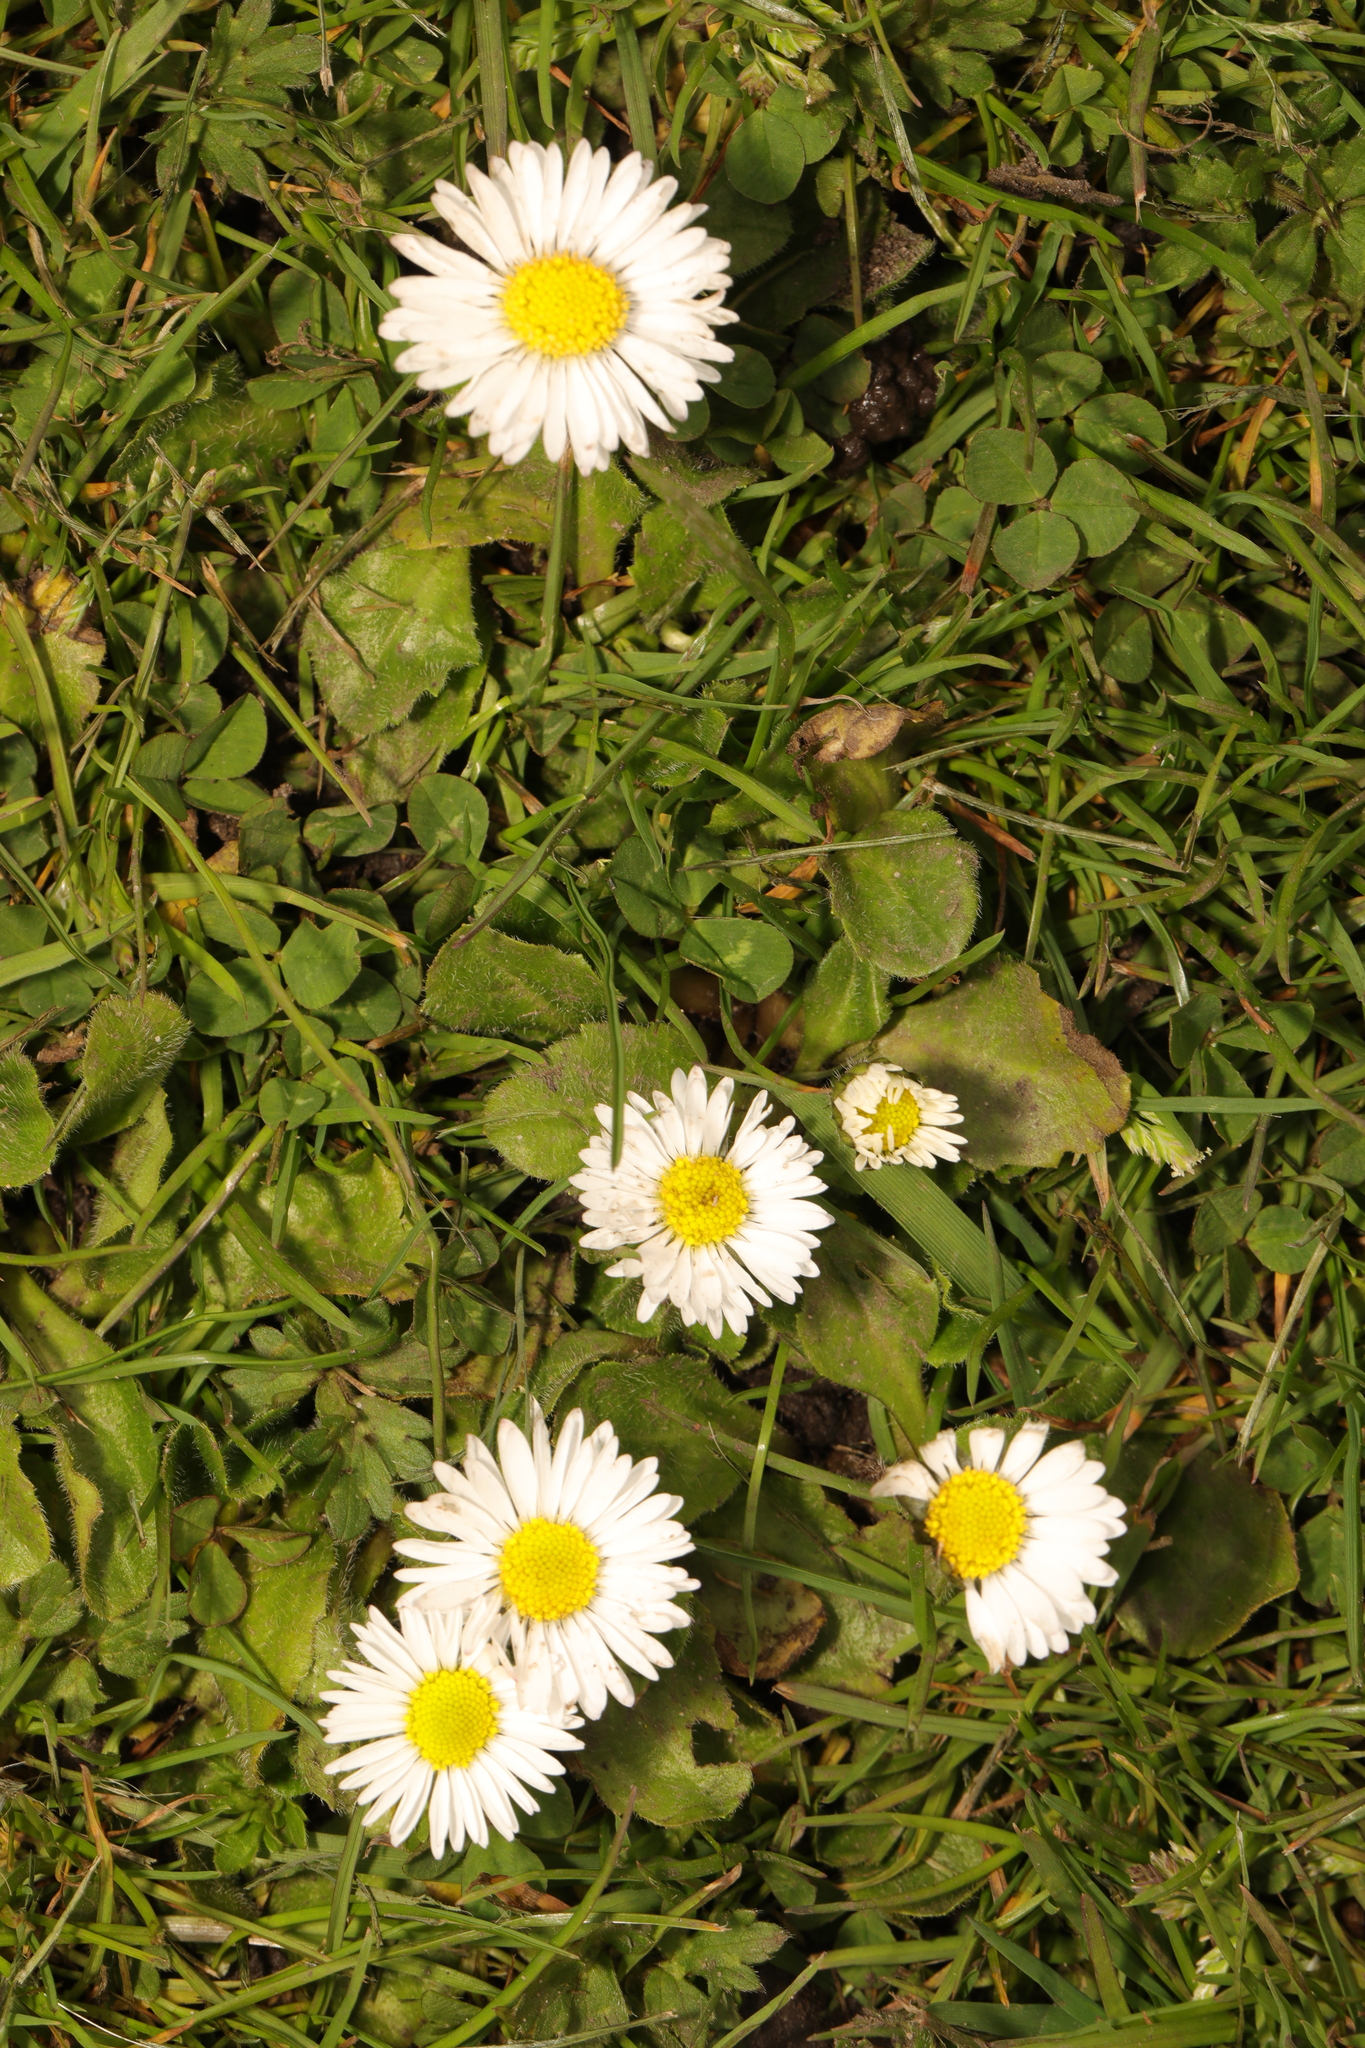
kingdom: Plantae
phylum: Tracheophyta
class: Magnoliopsida
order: Asterales
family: Asteraceae
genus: Bellis
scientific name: Bellis perennis
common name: Lawndaisy
